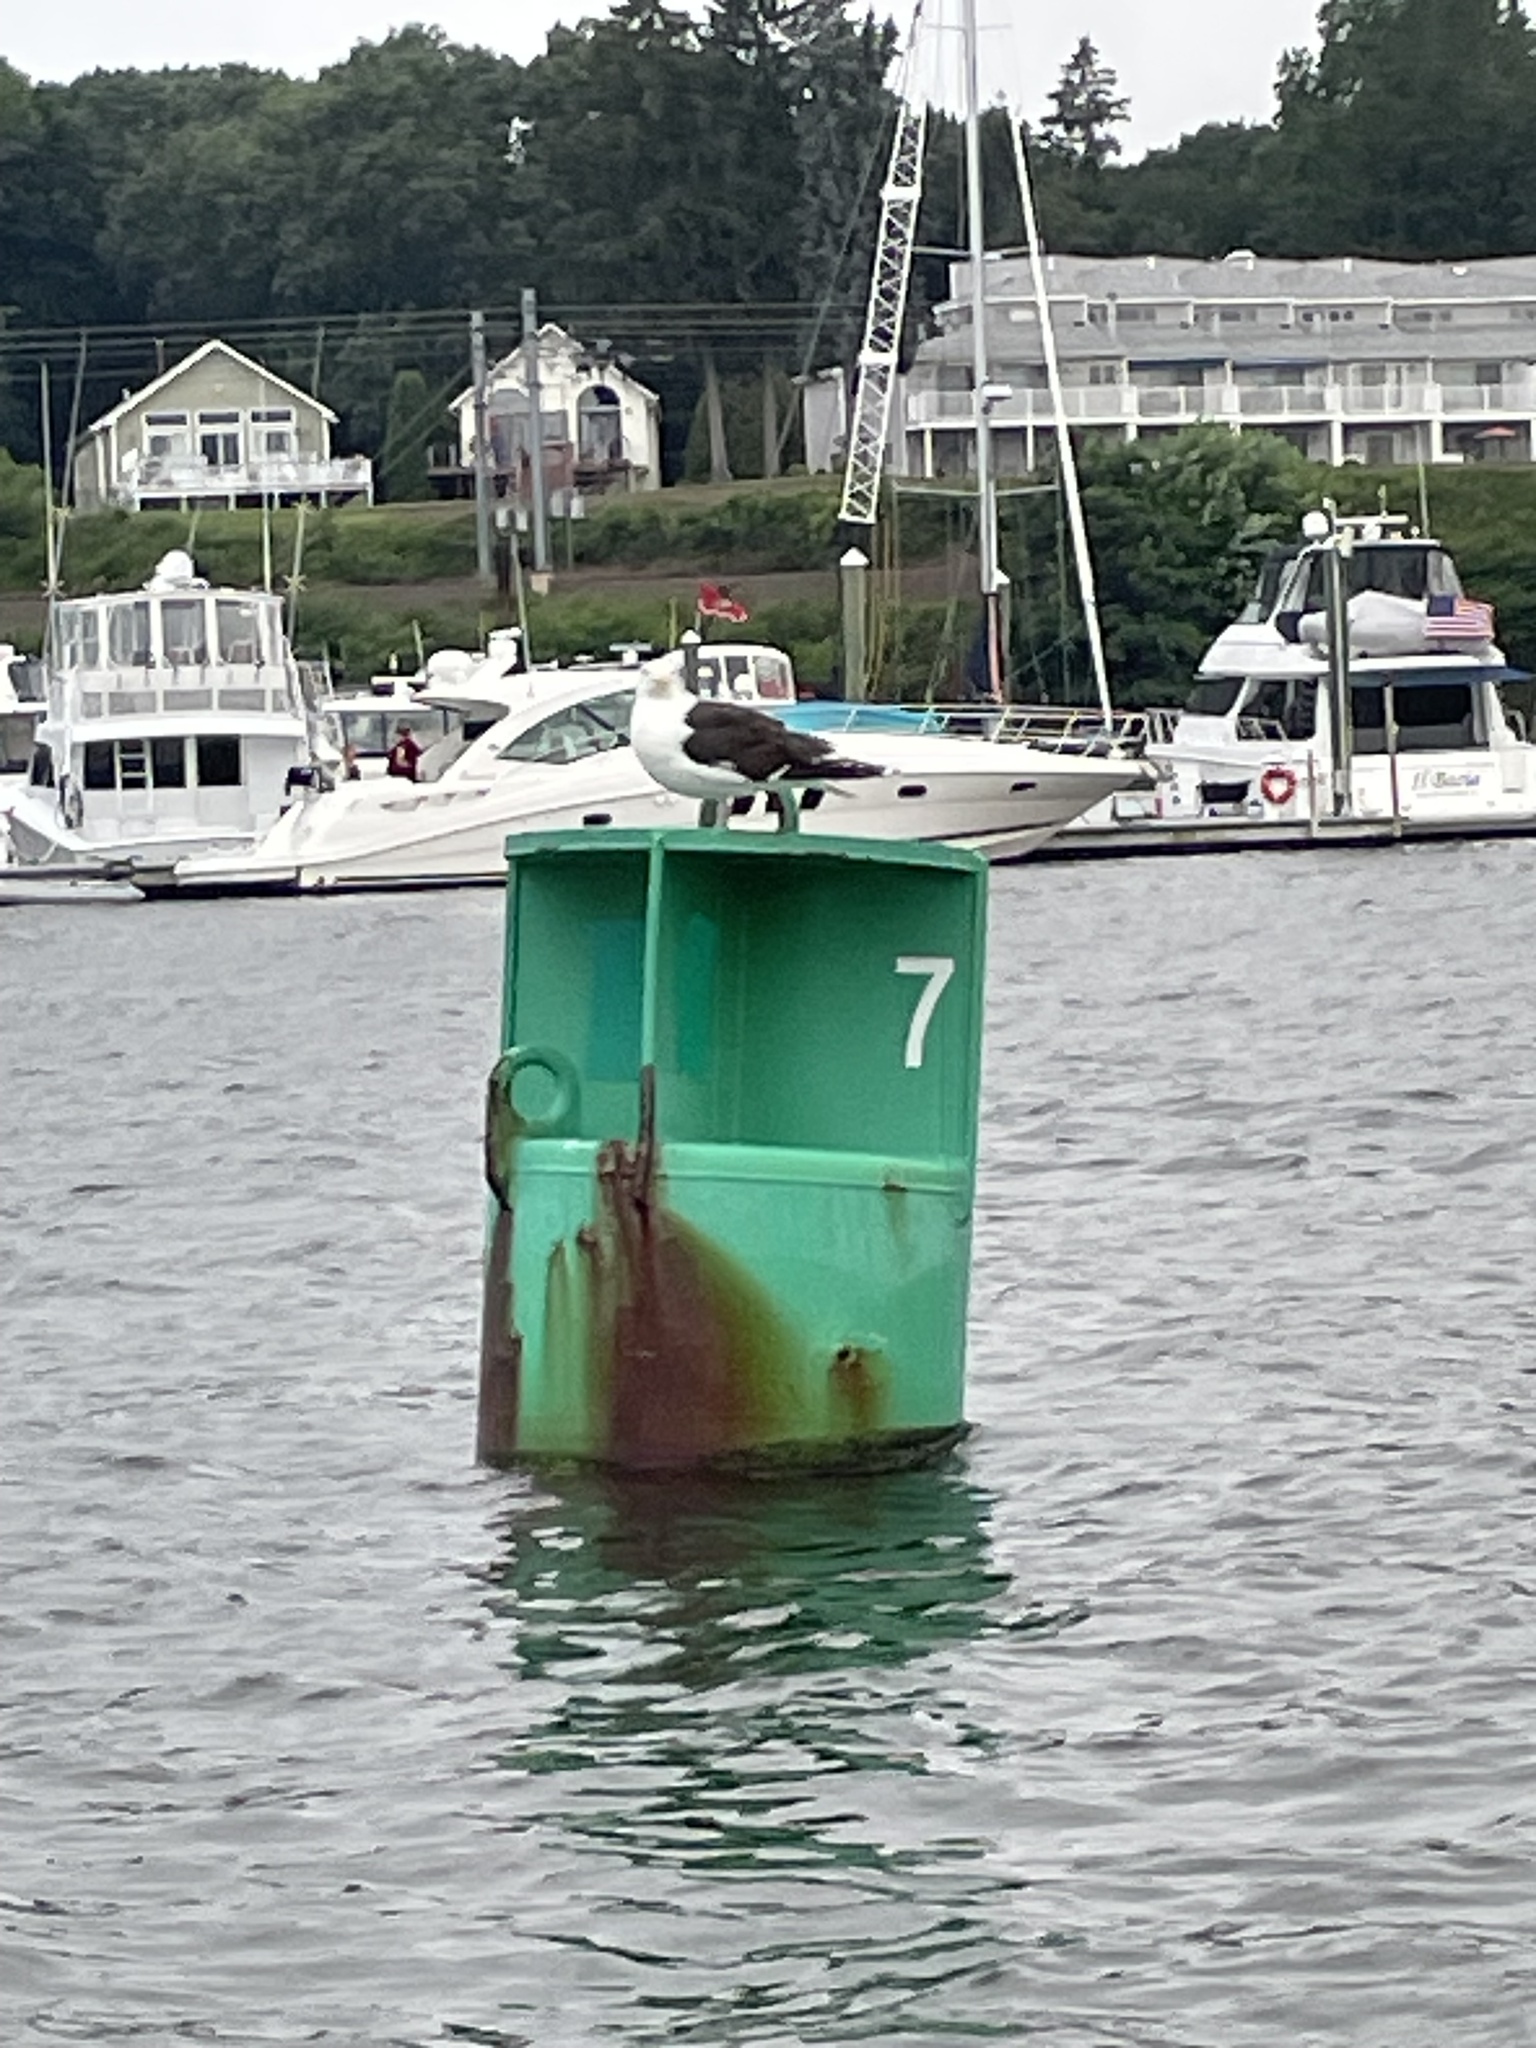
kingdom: Animalia
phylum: Chordata
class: Aves
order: Charadriiformes
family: Laridae
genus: Larus
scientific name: Larus marinus
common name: Great black-backed gull
